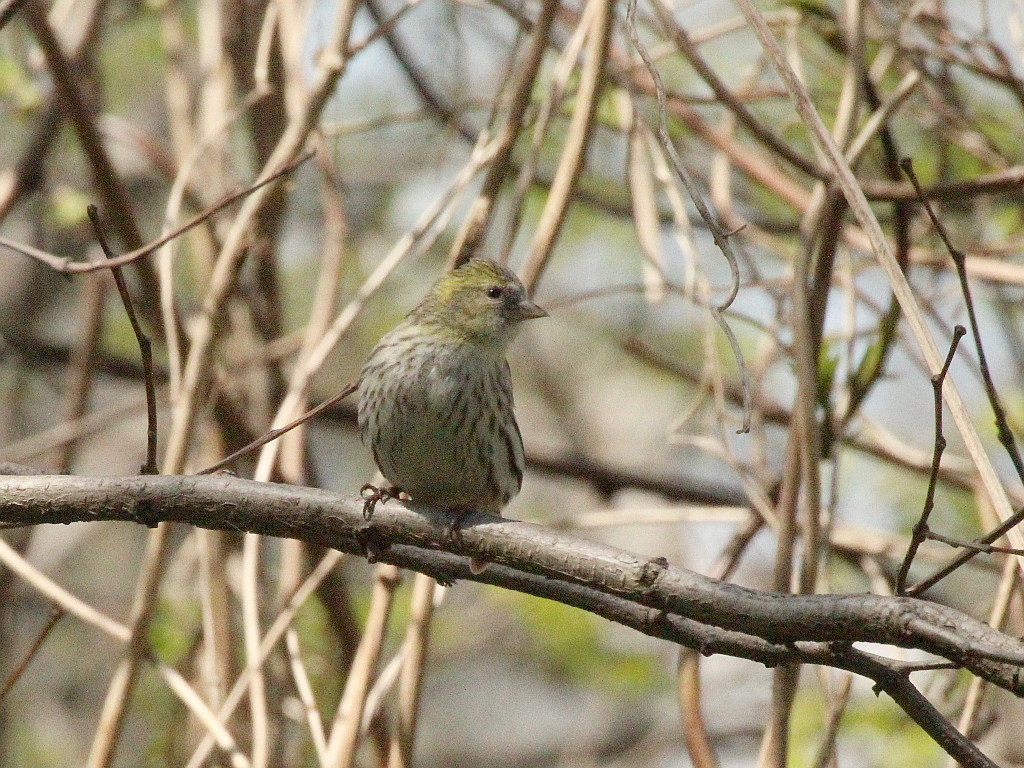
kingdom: Animalia
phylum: Chordata
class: Aves
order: Passeriformes
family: Fringillidae
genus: Spinus
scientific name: Spinus spinus
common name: Eurasian siskin
